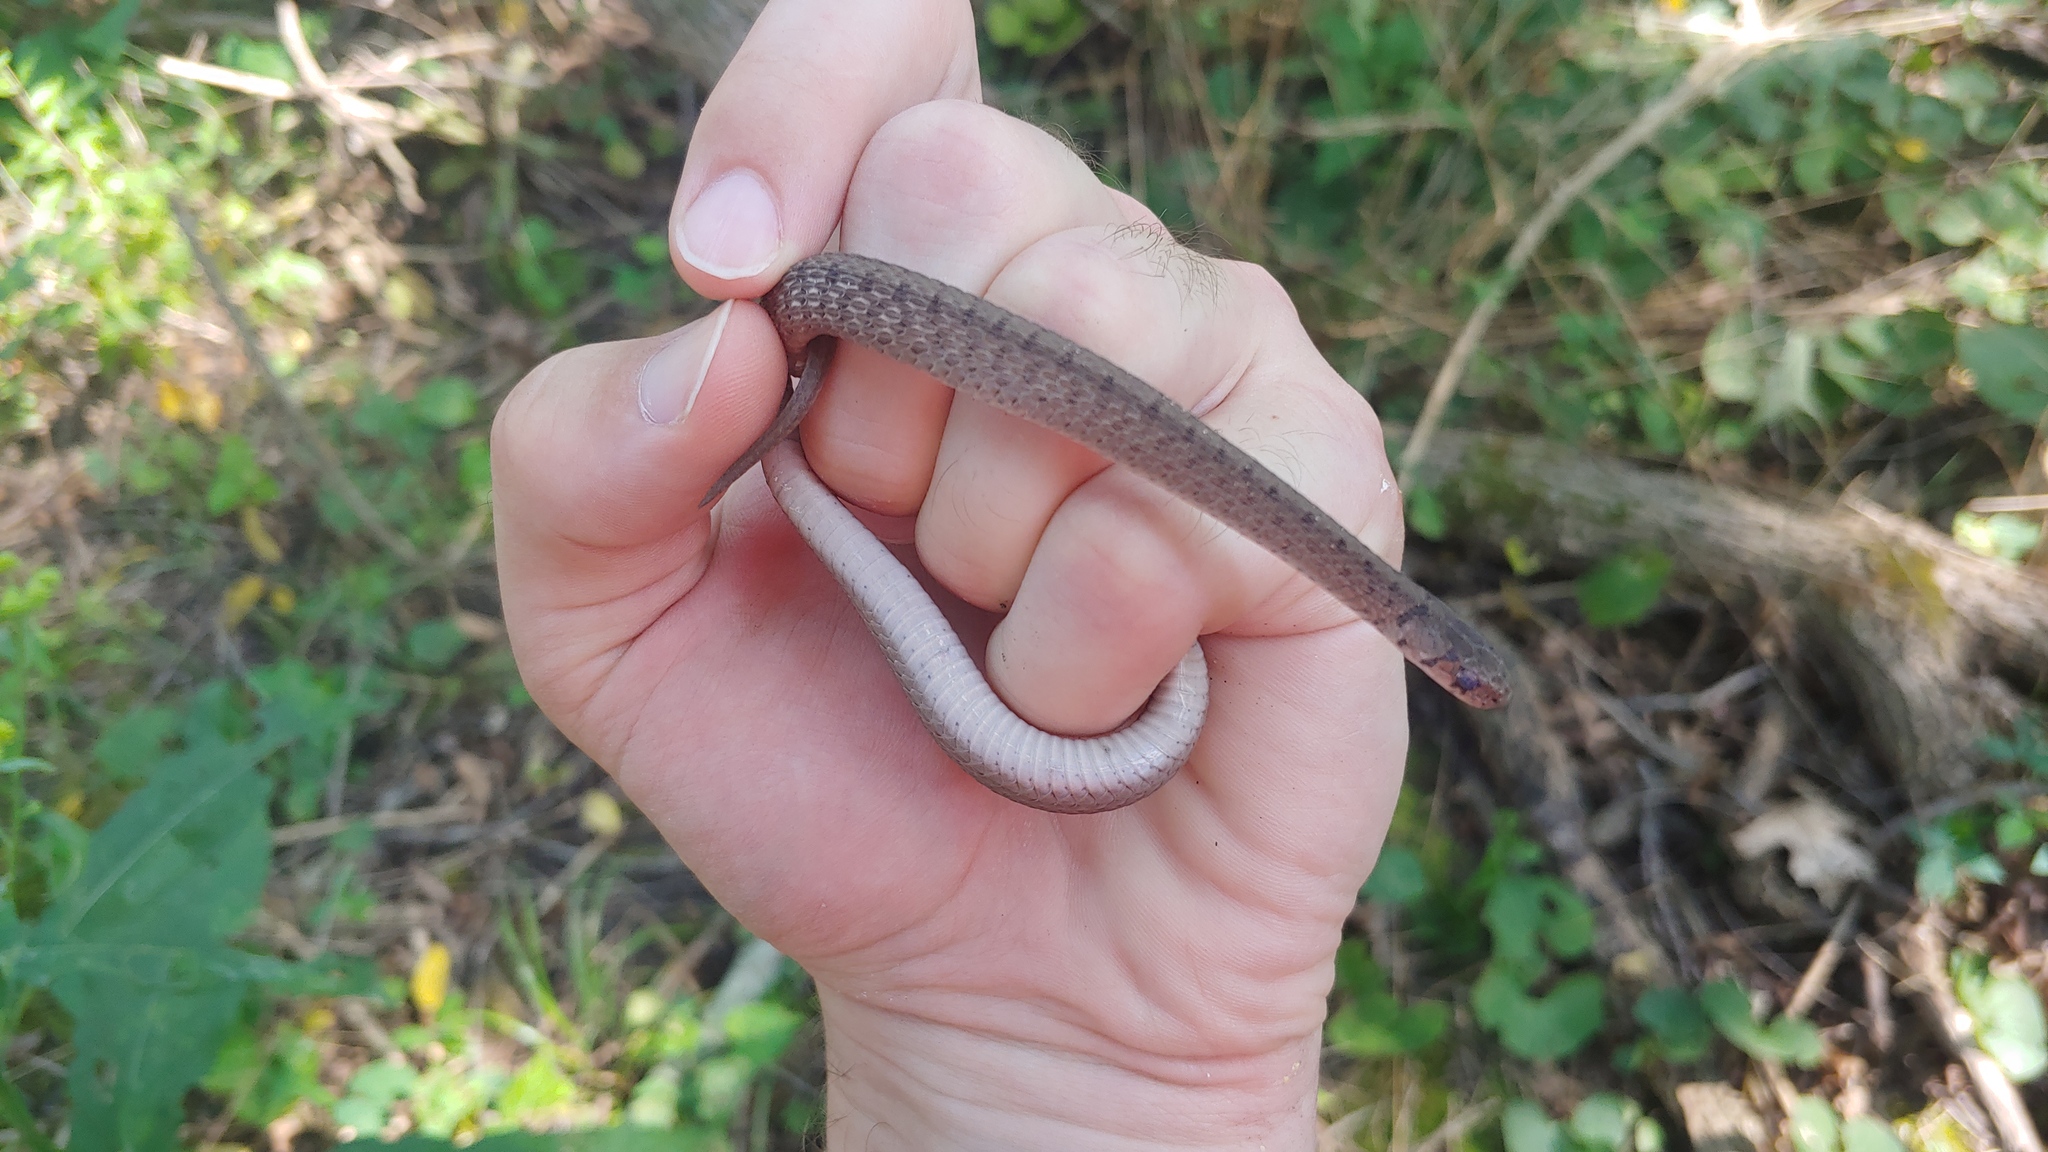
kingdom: Animalia
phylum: Chordata
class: Squamata
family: Colubridae
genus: Storeria
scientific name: Storeria dekayi
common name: (dekay’s) brown snake
